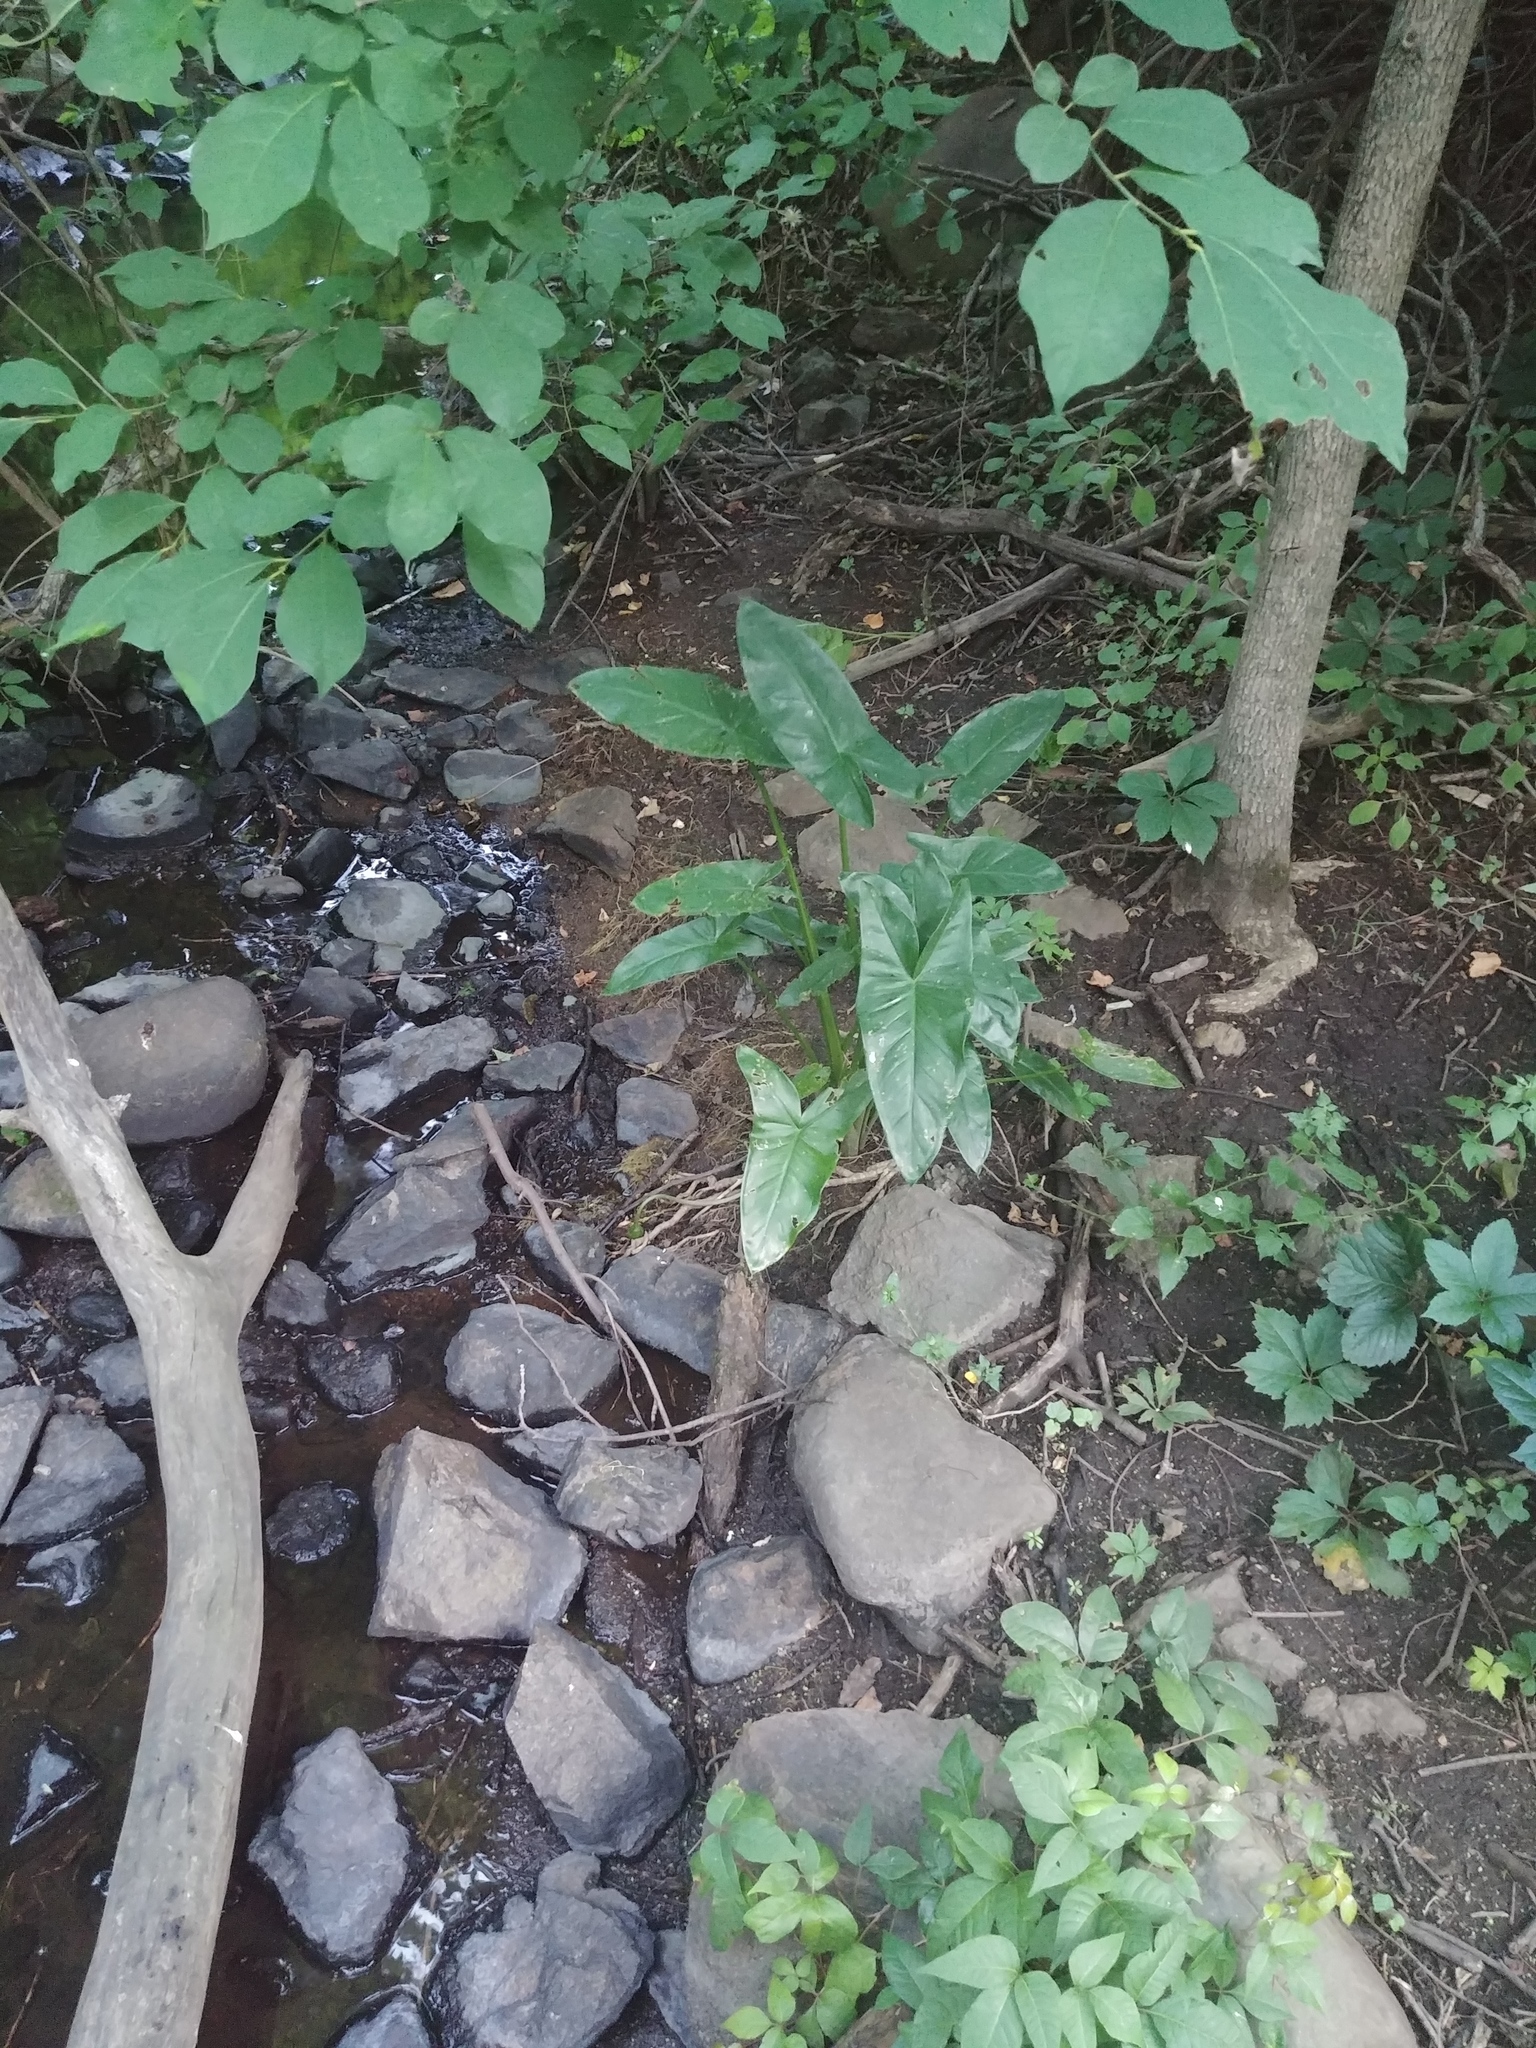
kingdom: Plantae
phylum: Tracheophyta
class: Liliopsida
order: Alismatales
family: Araceae
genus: Peltandra
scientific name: Peltandra virginica
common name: Arrow arum
